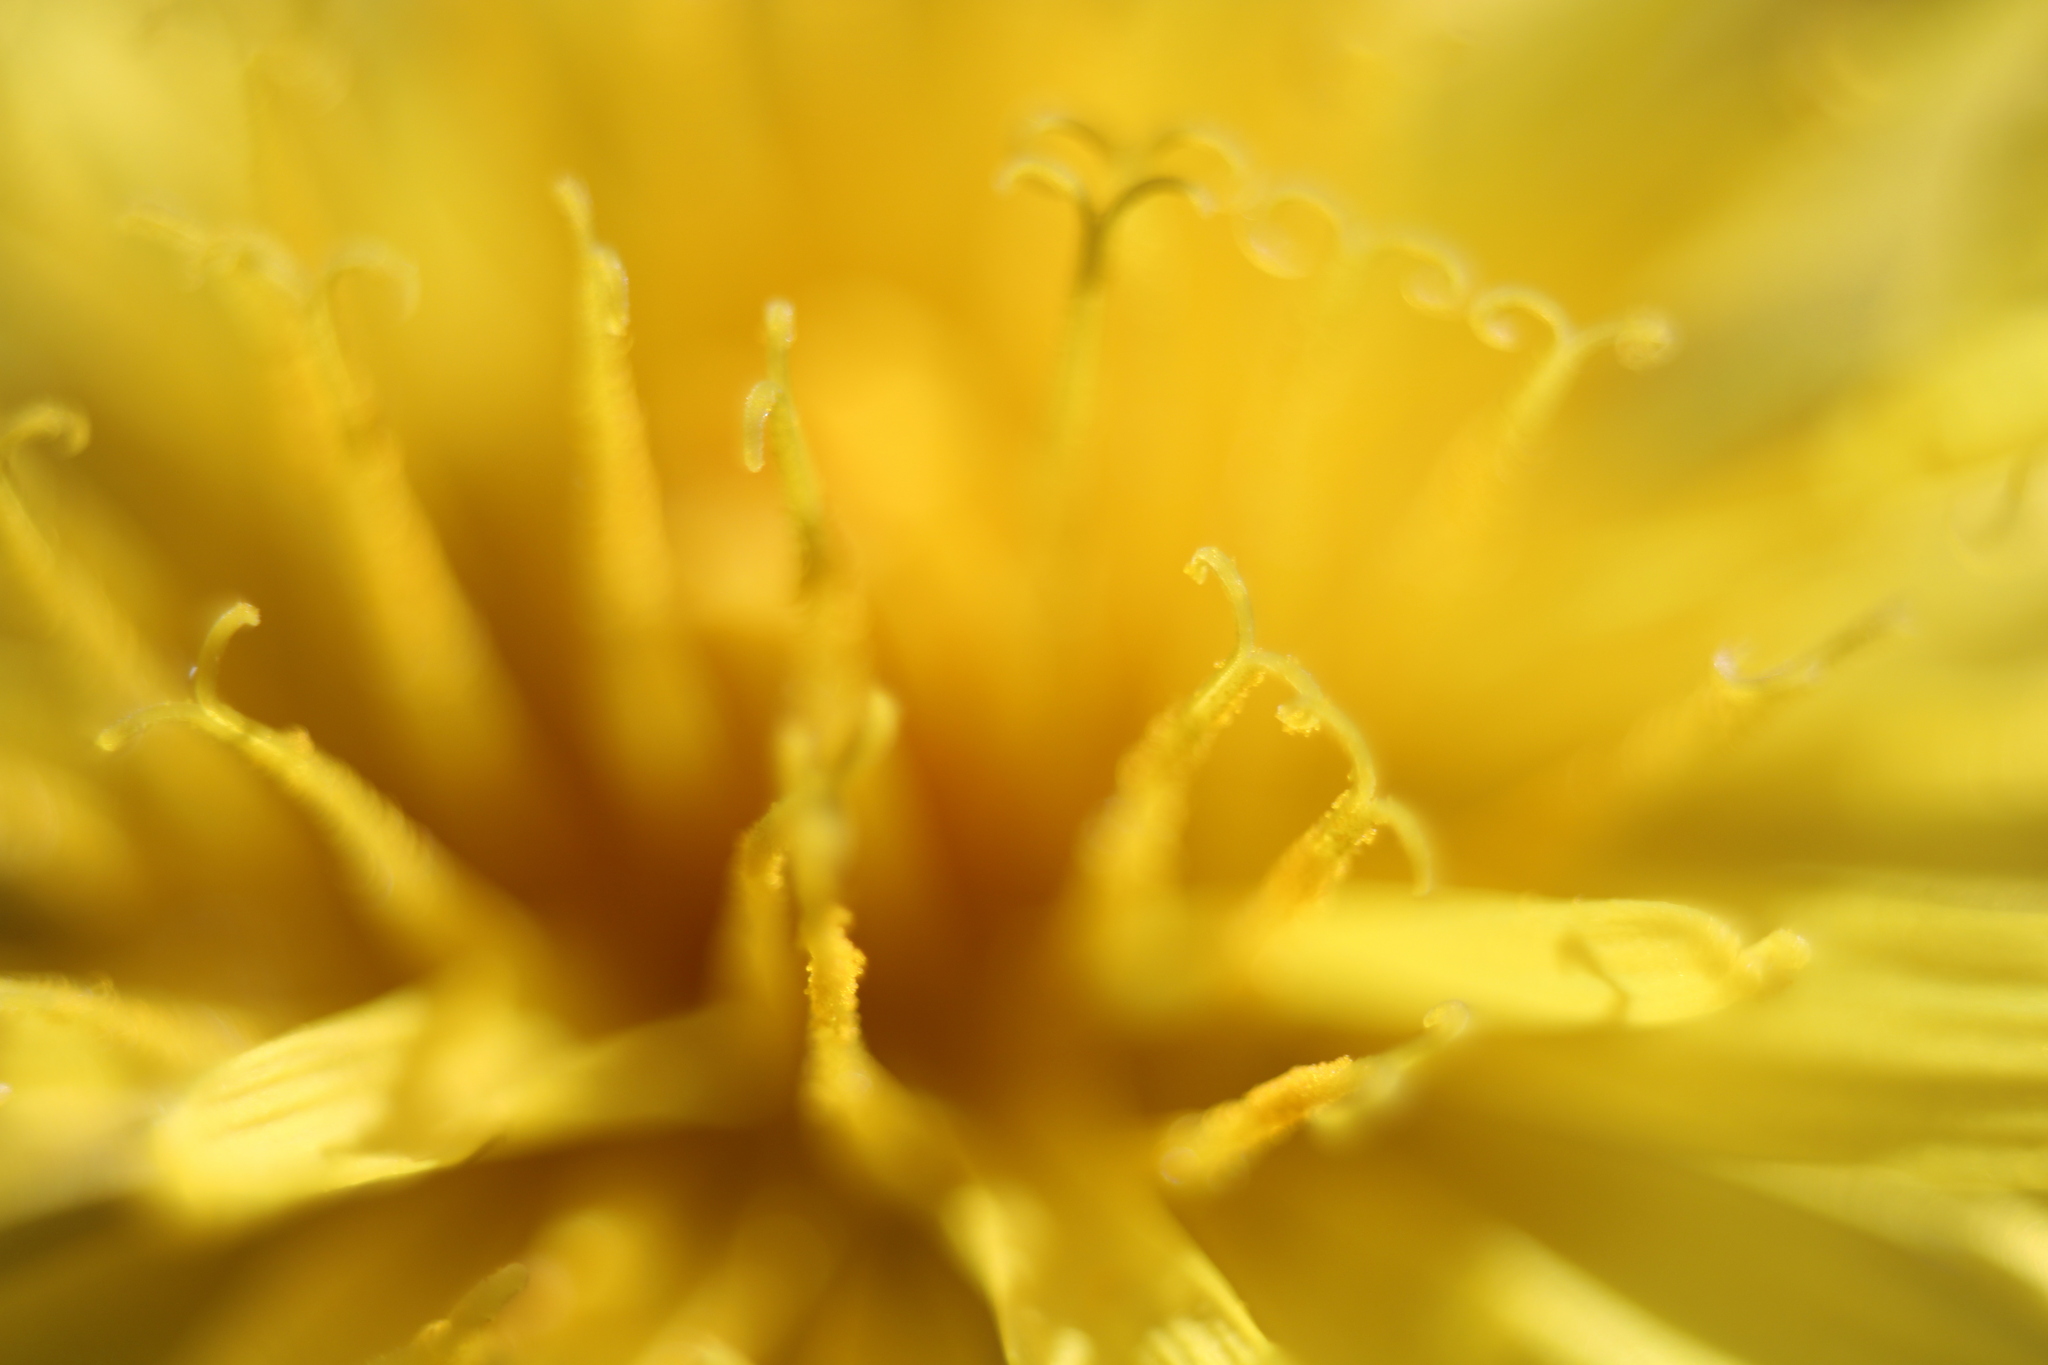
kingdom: Plantae
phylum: Tracheophyta
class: Magnoliopsida
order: Asterales
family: Asteraceae
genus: Taraxacum
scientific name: Taraxacum officinale
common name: Common dandelion
